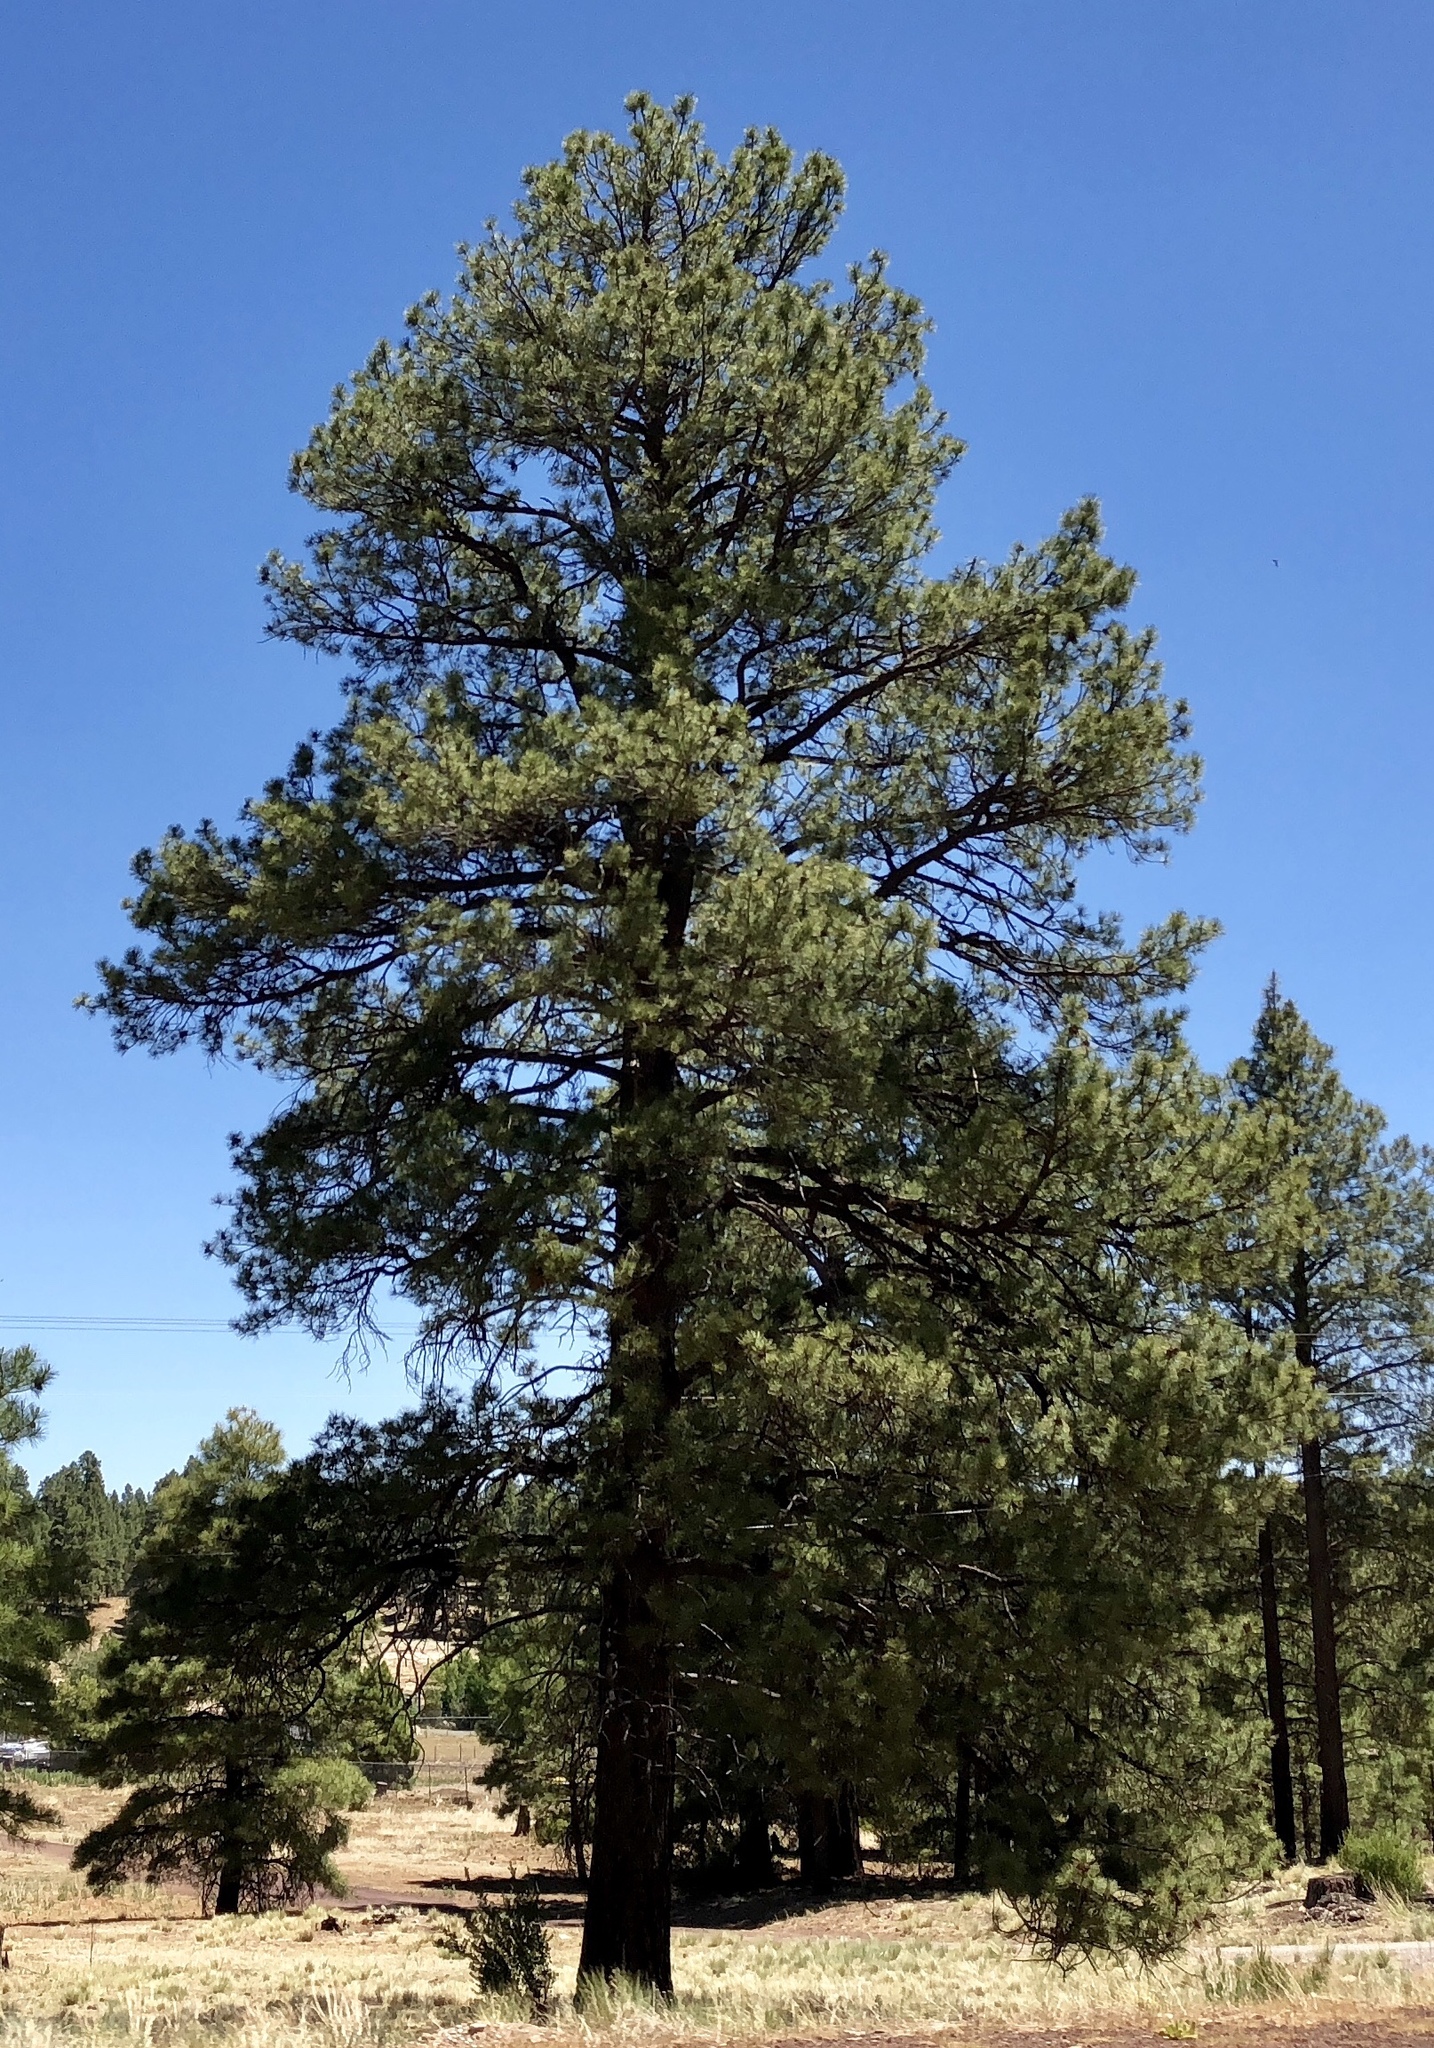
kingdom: Plantae
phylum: Tracheophyta
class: Pinopsida
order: Pinales
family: Pinaceae
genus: Pinus
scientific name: Pinus ponderosa
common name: Western yellow-pine
